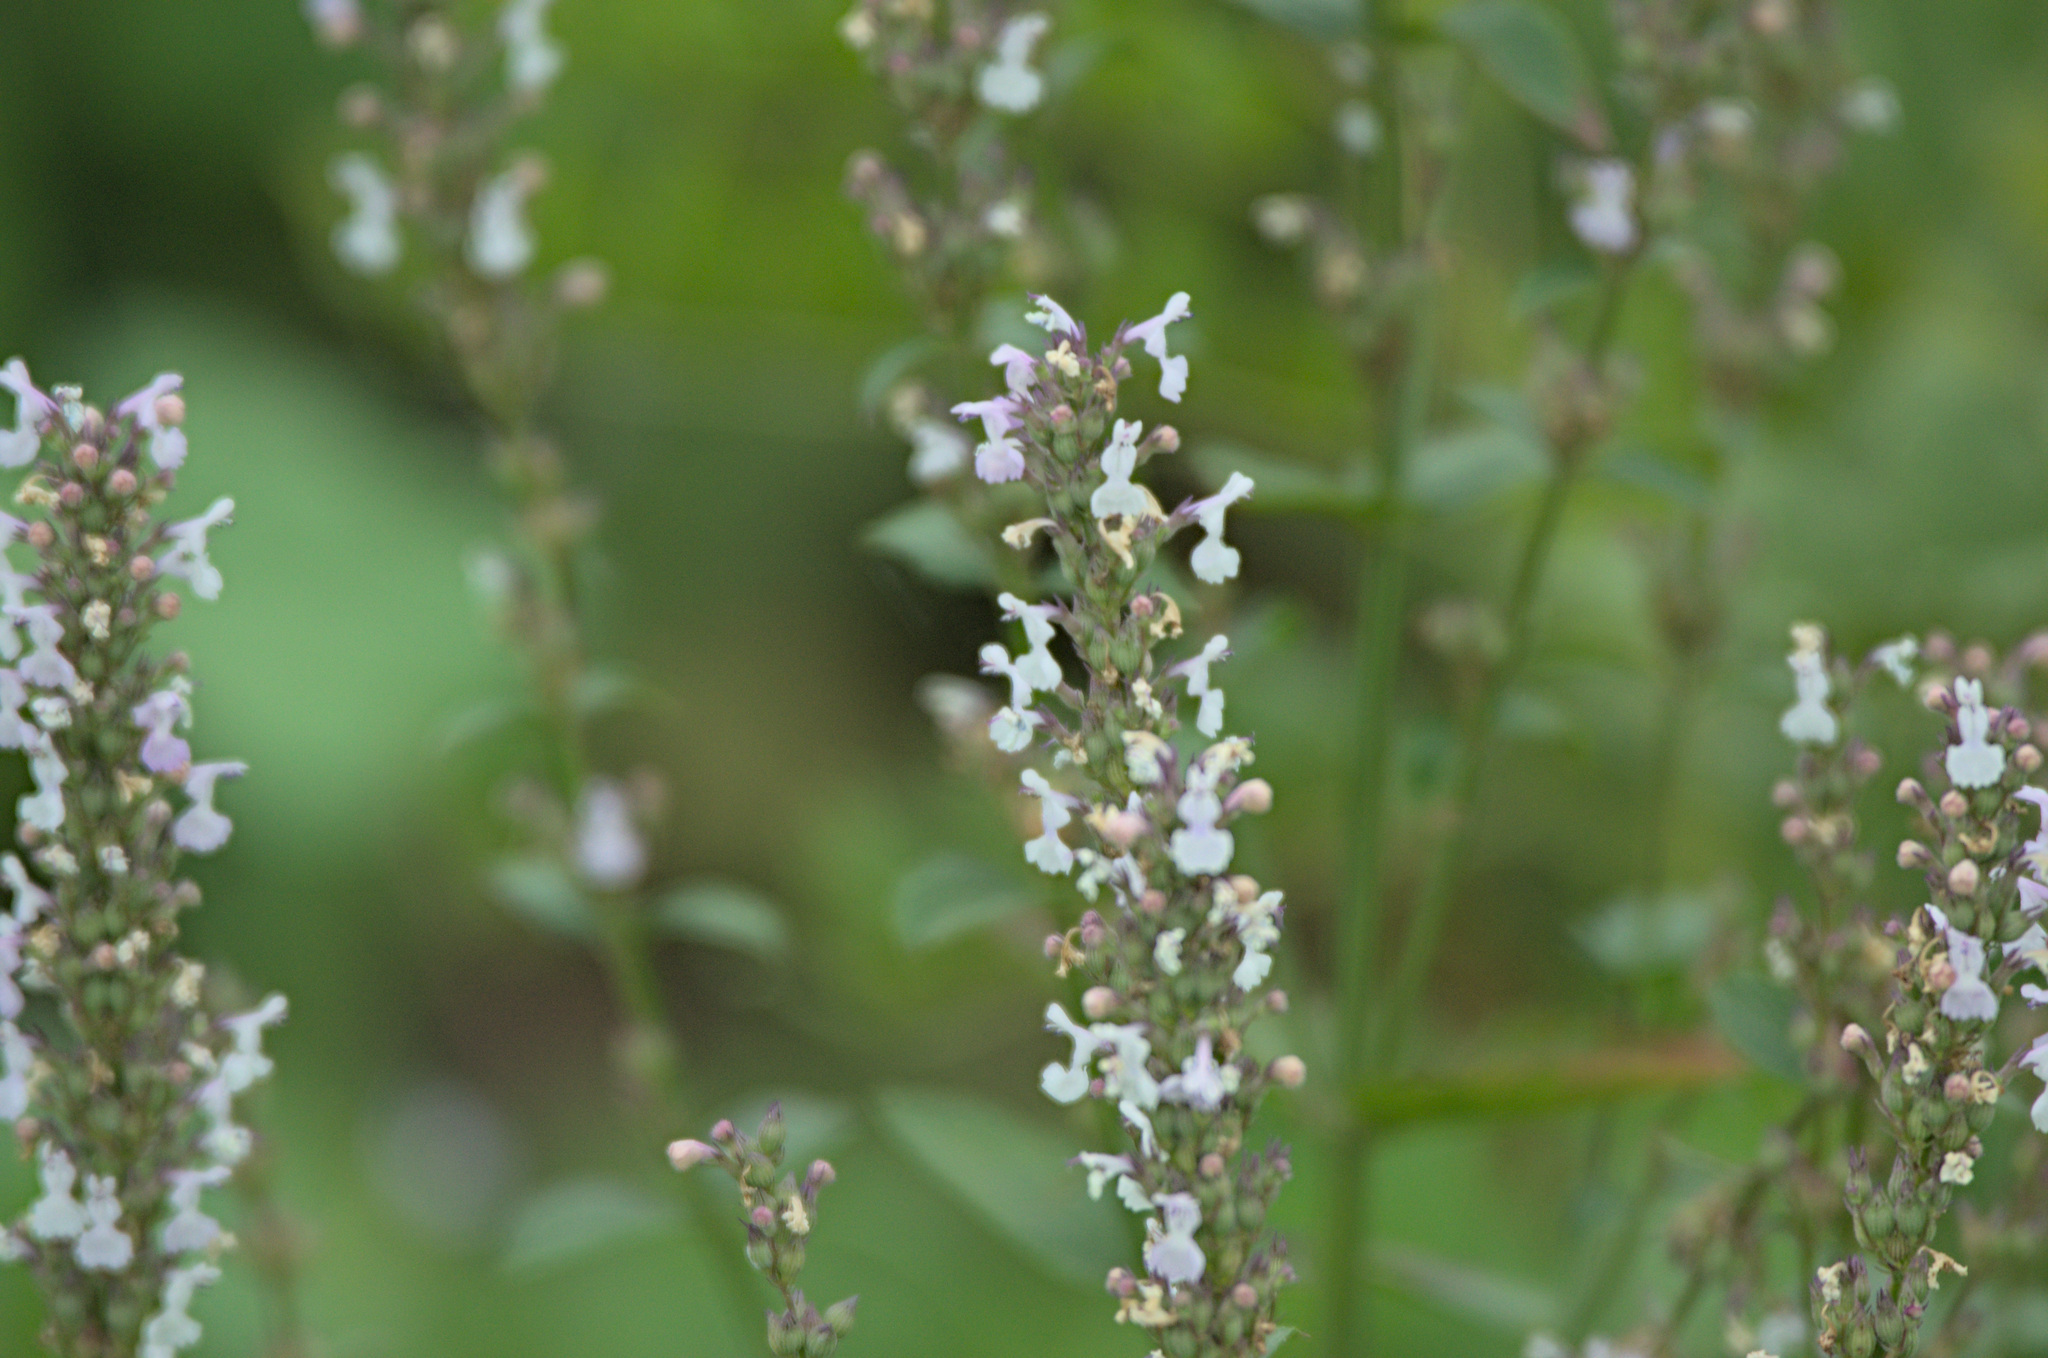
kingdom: Plantae
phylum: Tracheophyta
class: Magnoliopsida
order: Lamiales
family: Lamiaceae
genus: Nepeta
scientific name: Nepeta nuda
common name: Hairless catmint
